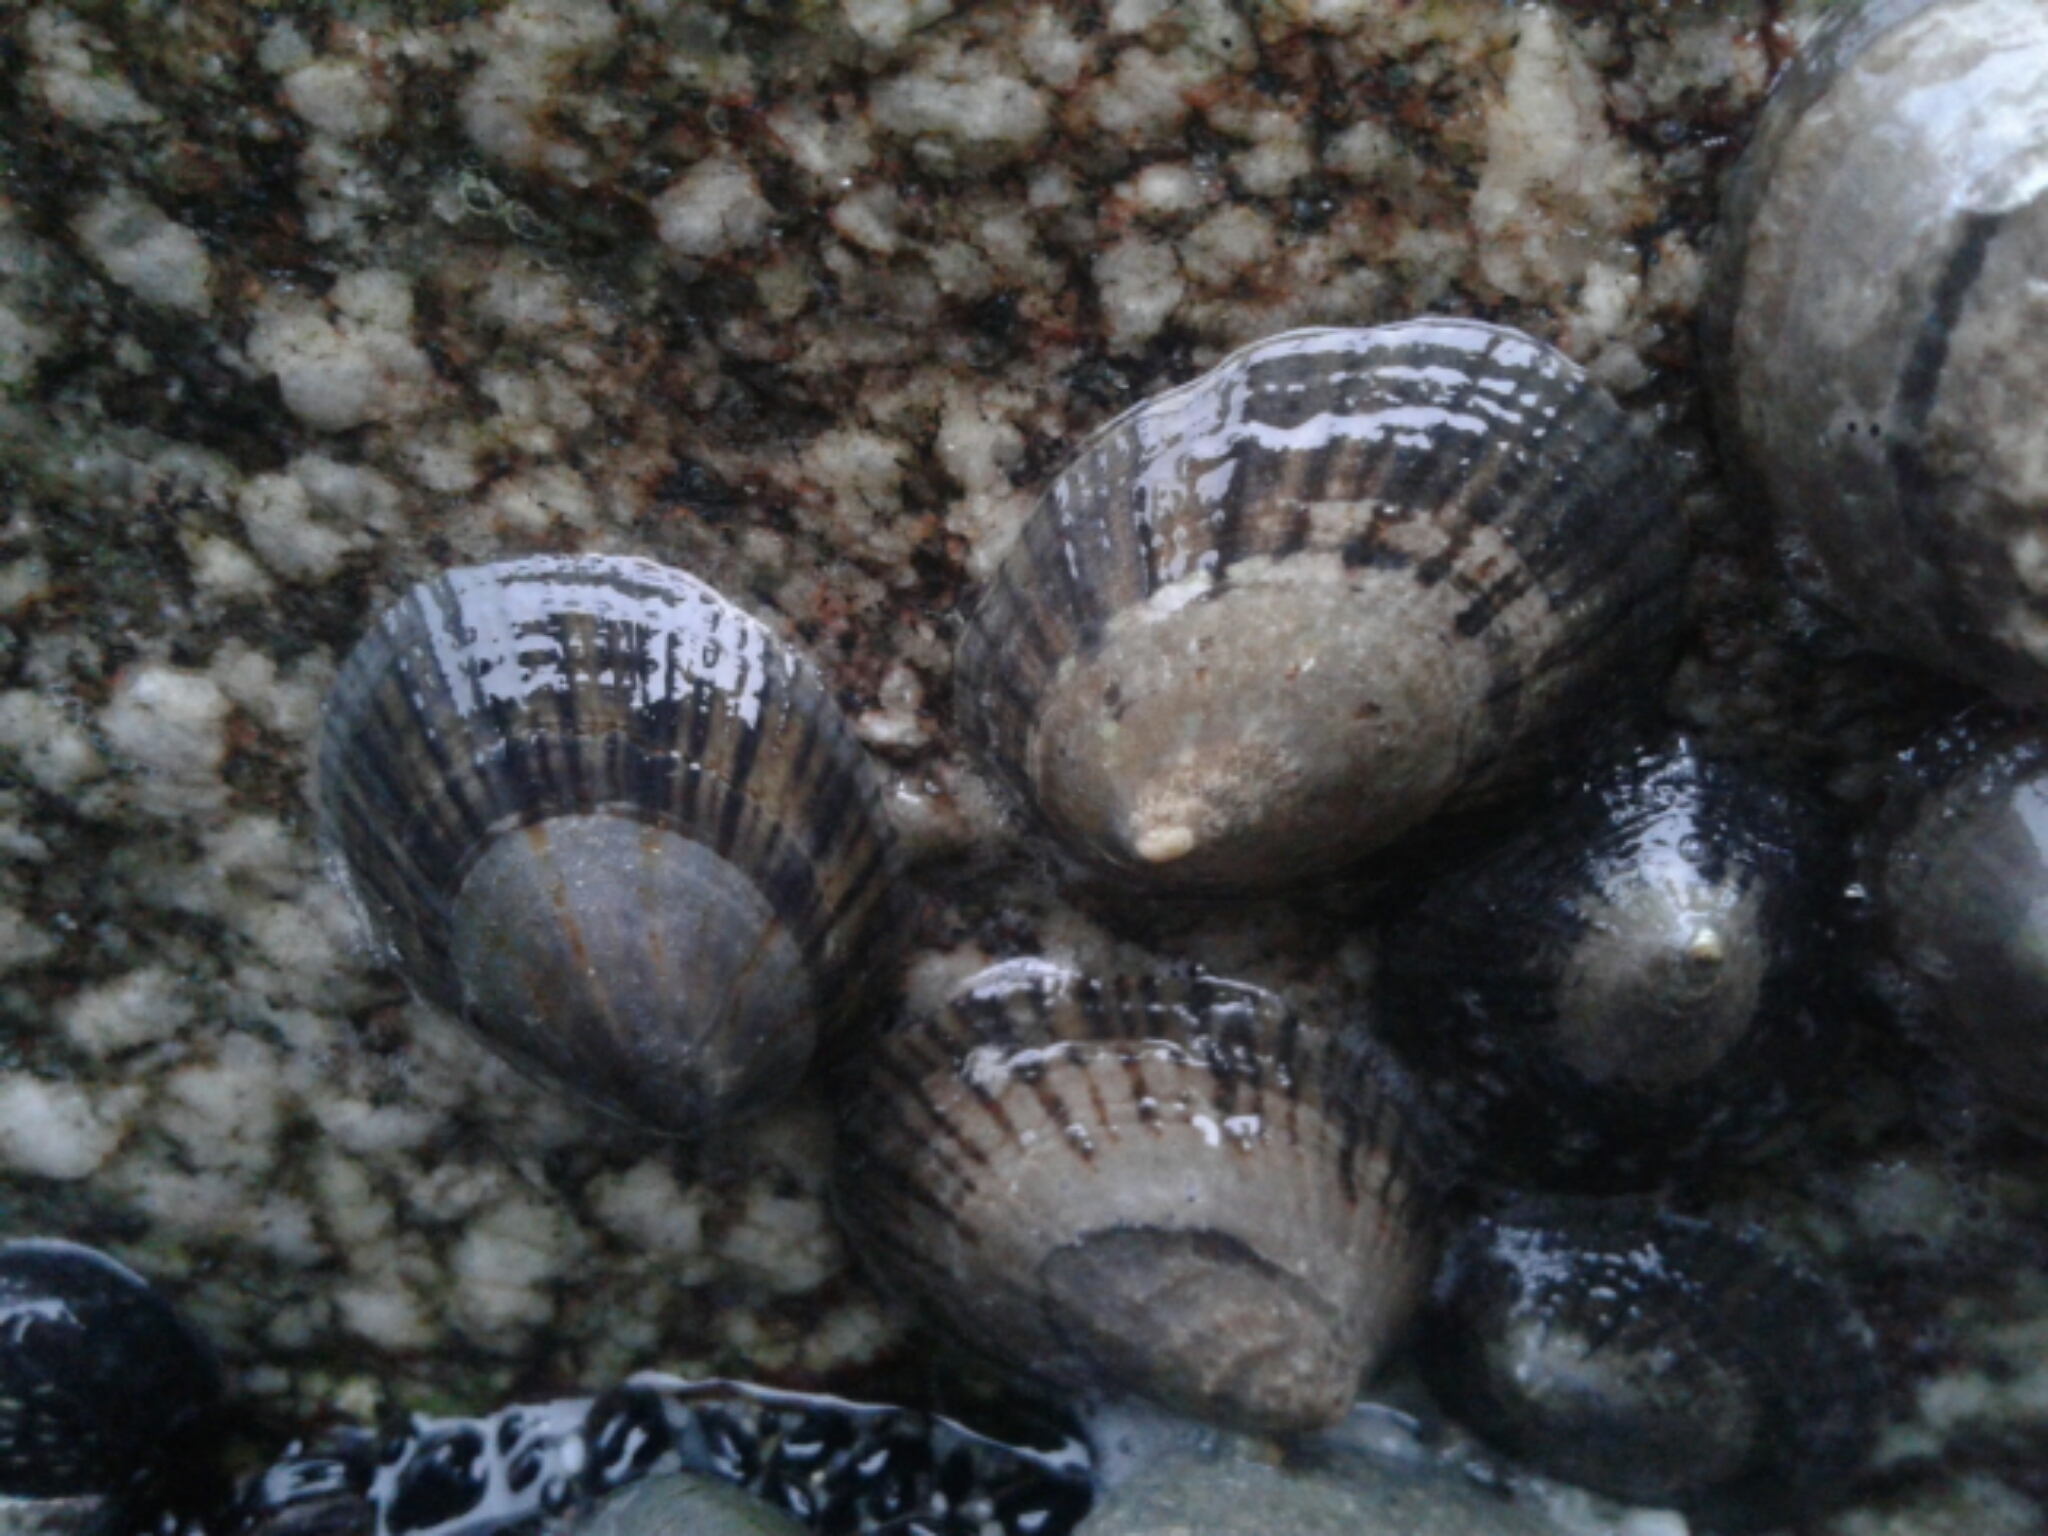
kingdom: Animalia
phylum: Mollusca
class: Gastropoda
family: Nacellidae
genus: Cellana
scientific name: Cellana radians
